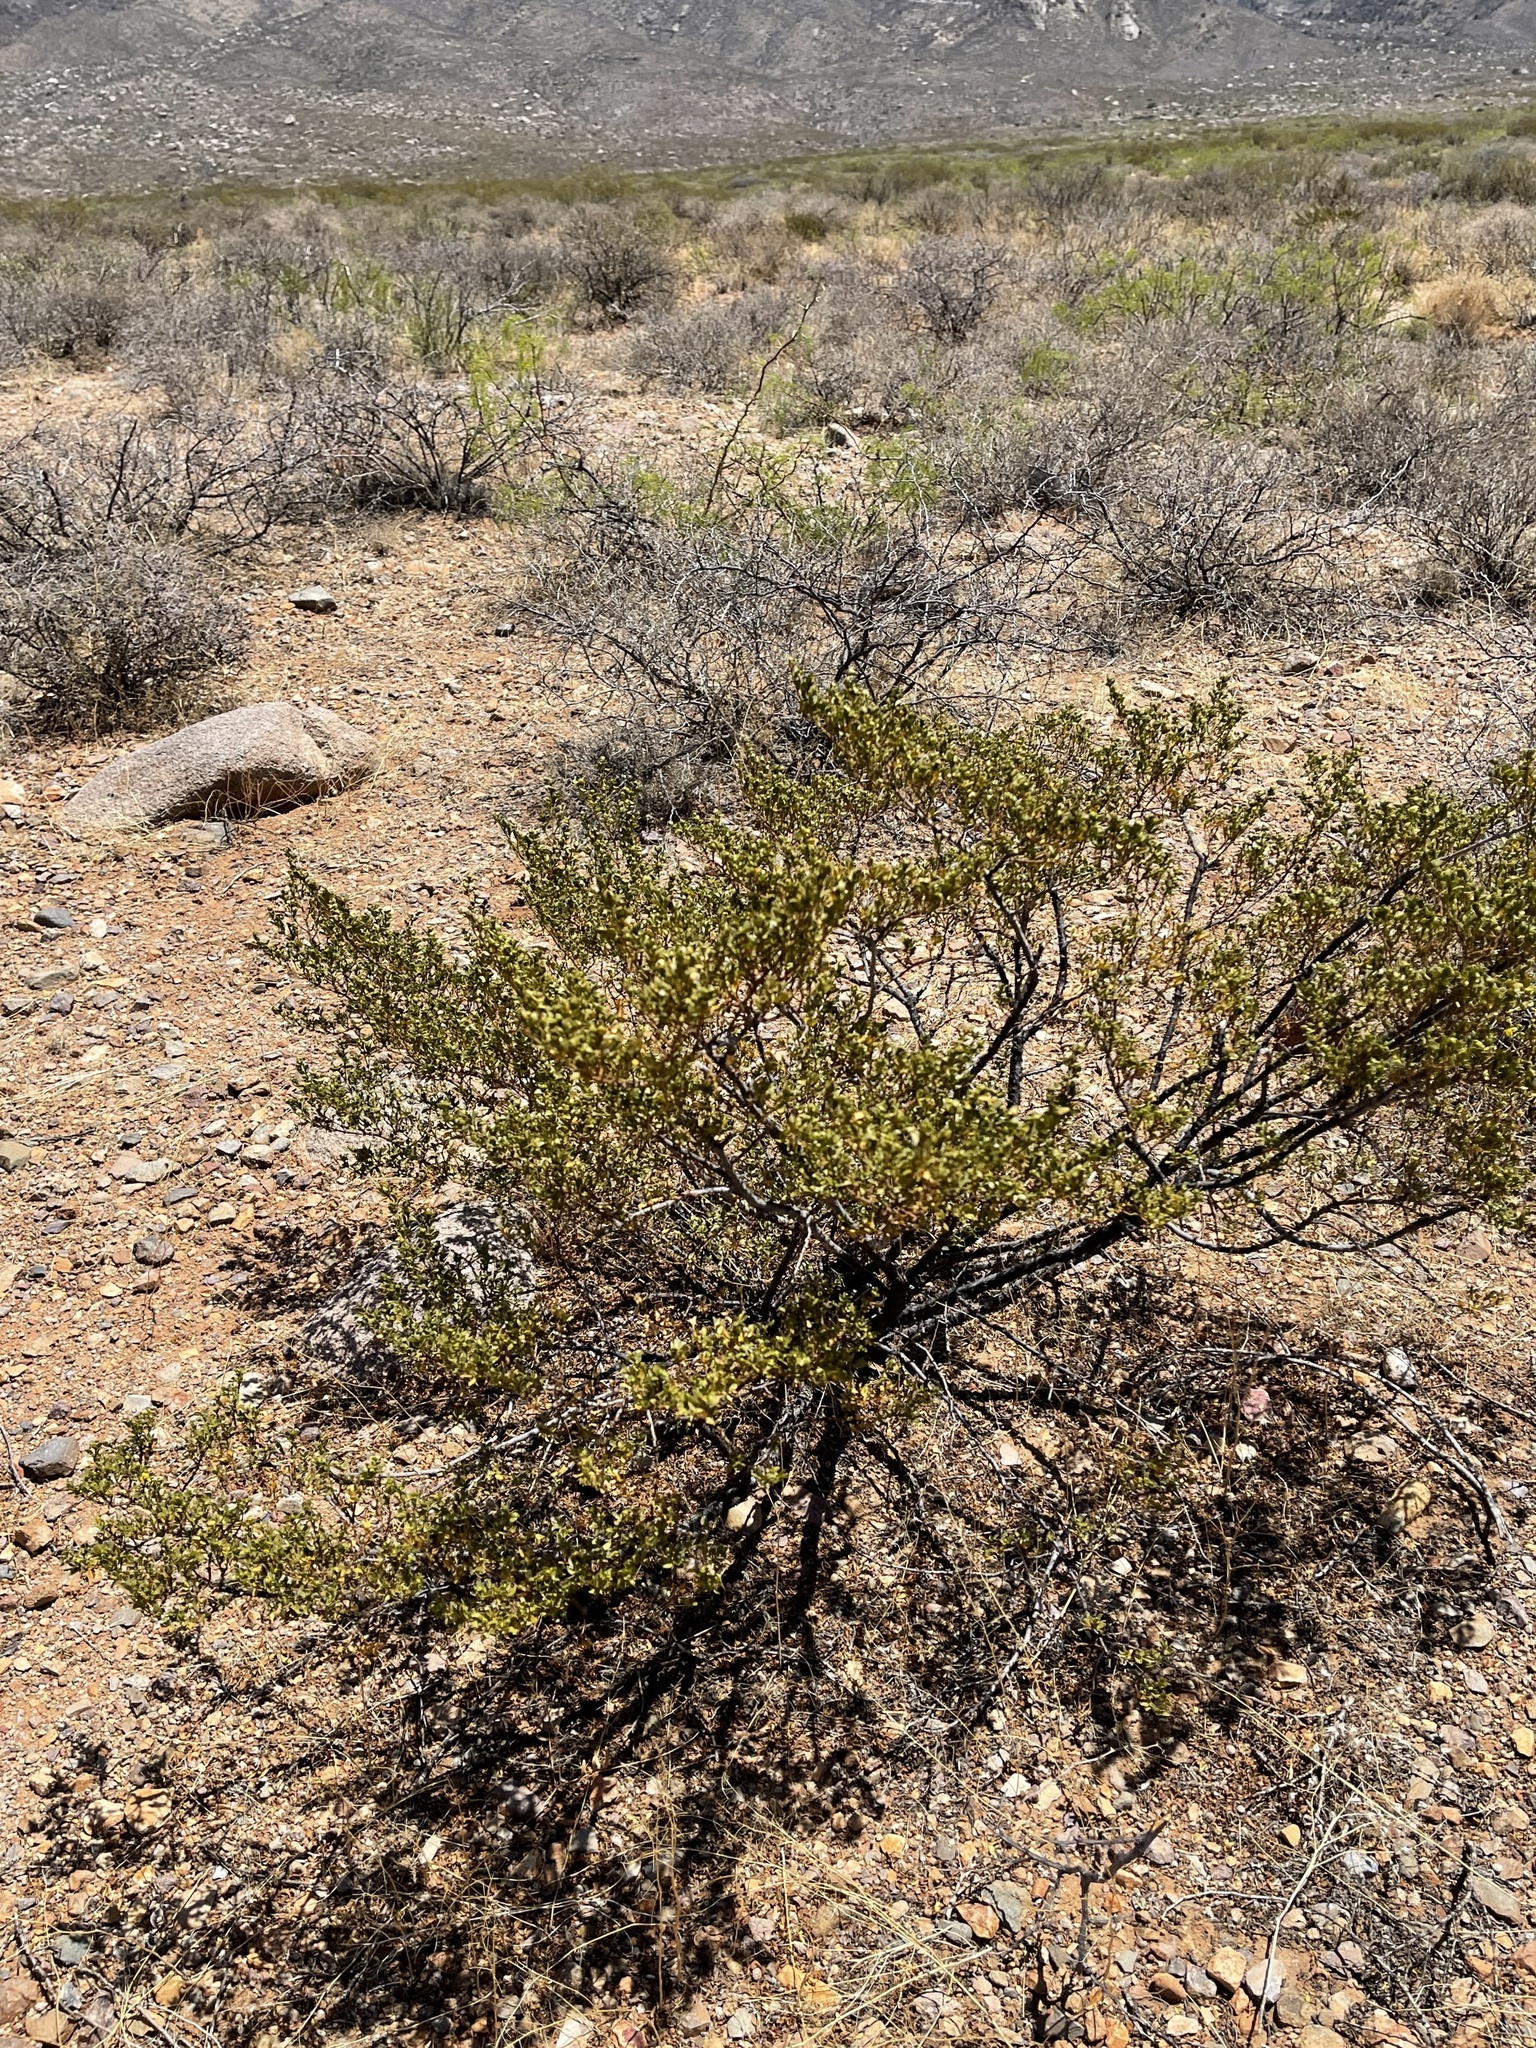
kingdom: Plantae
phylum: Tracheophyta
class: Magnoliopsida
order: Zygophyllales
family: Zygophyllaceae
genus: Larrea
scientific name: Larrea tridentata
